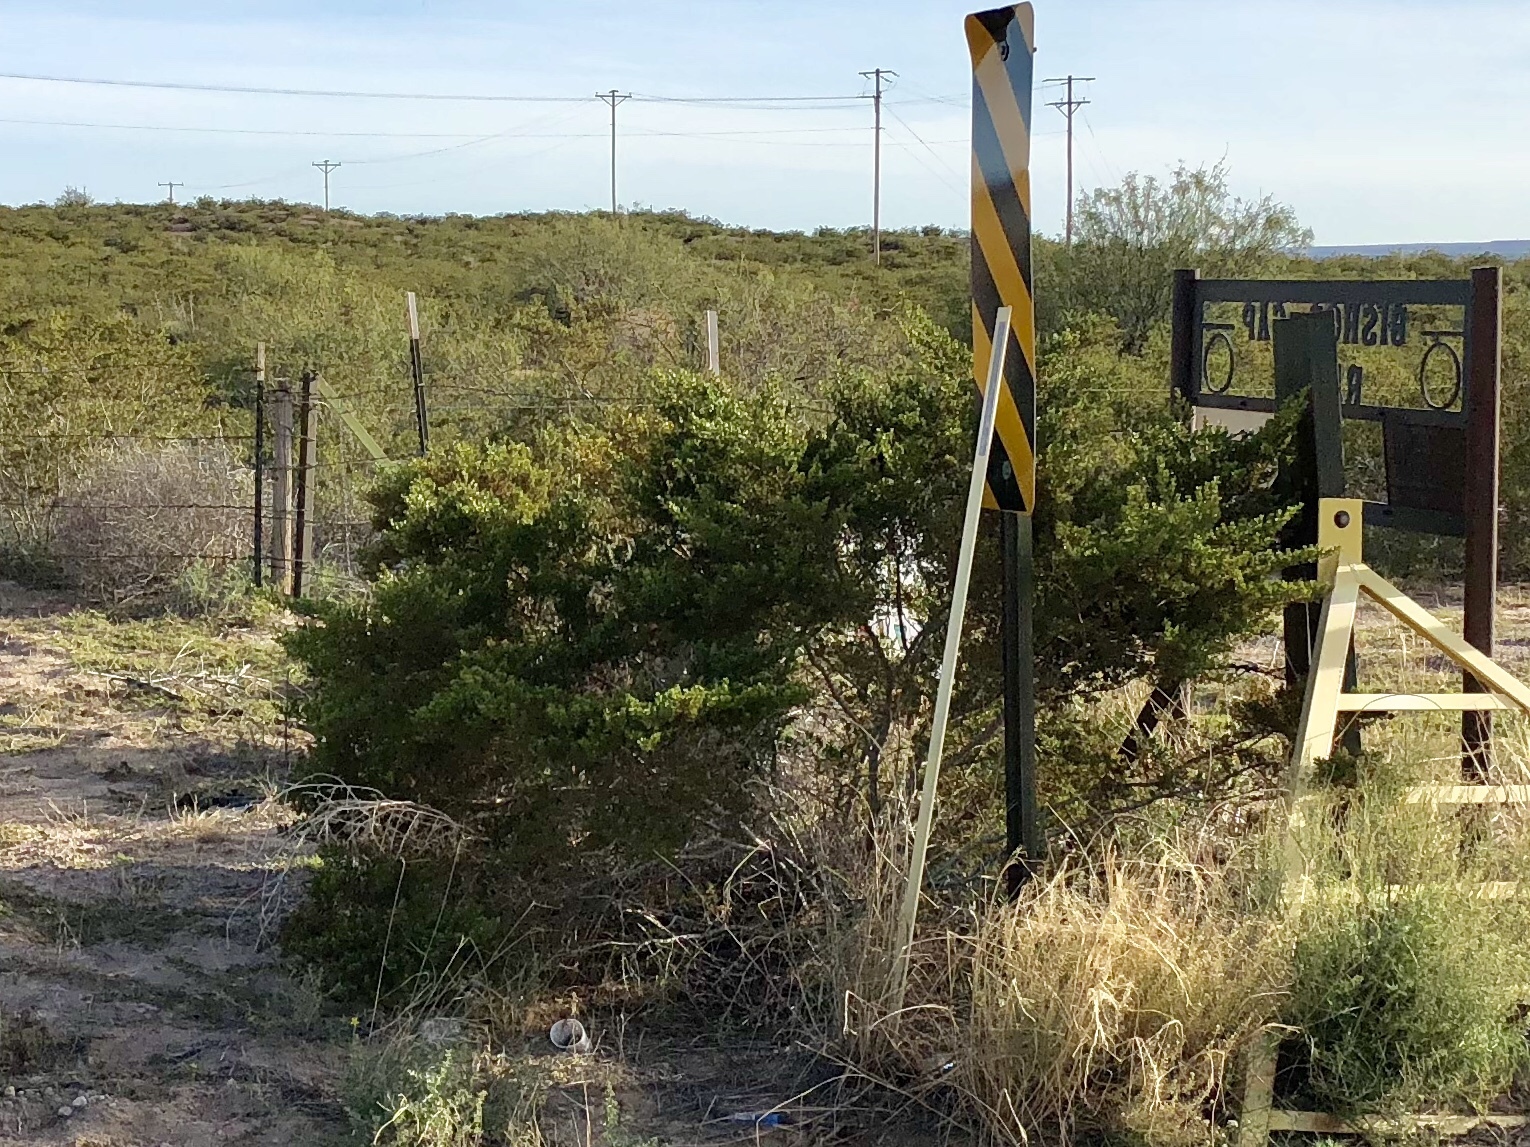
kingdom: Plantae
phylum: Tracheophyta
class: Magnoliopsida
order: Zygophyllales
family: Zygophyllaceae
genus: Larrea
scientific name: Larrea tridentata
